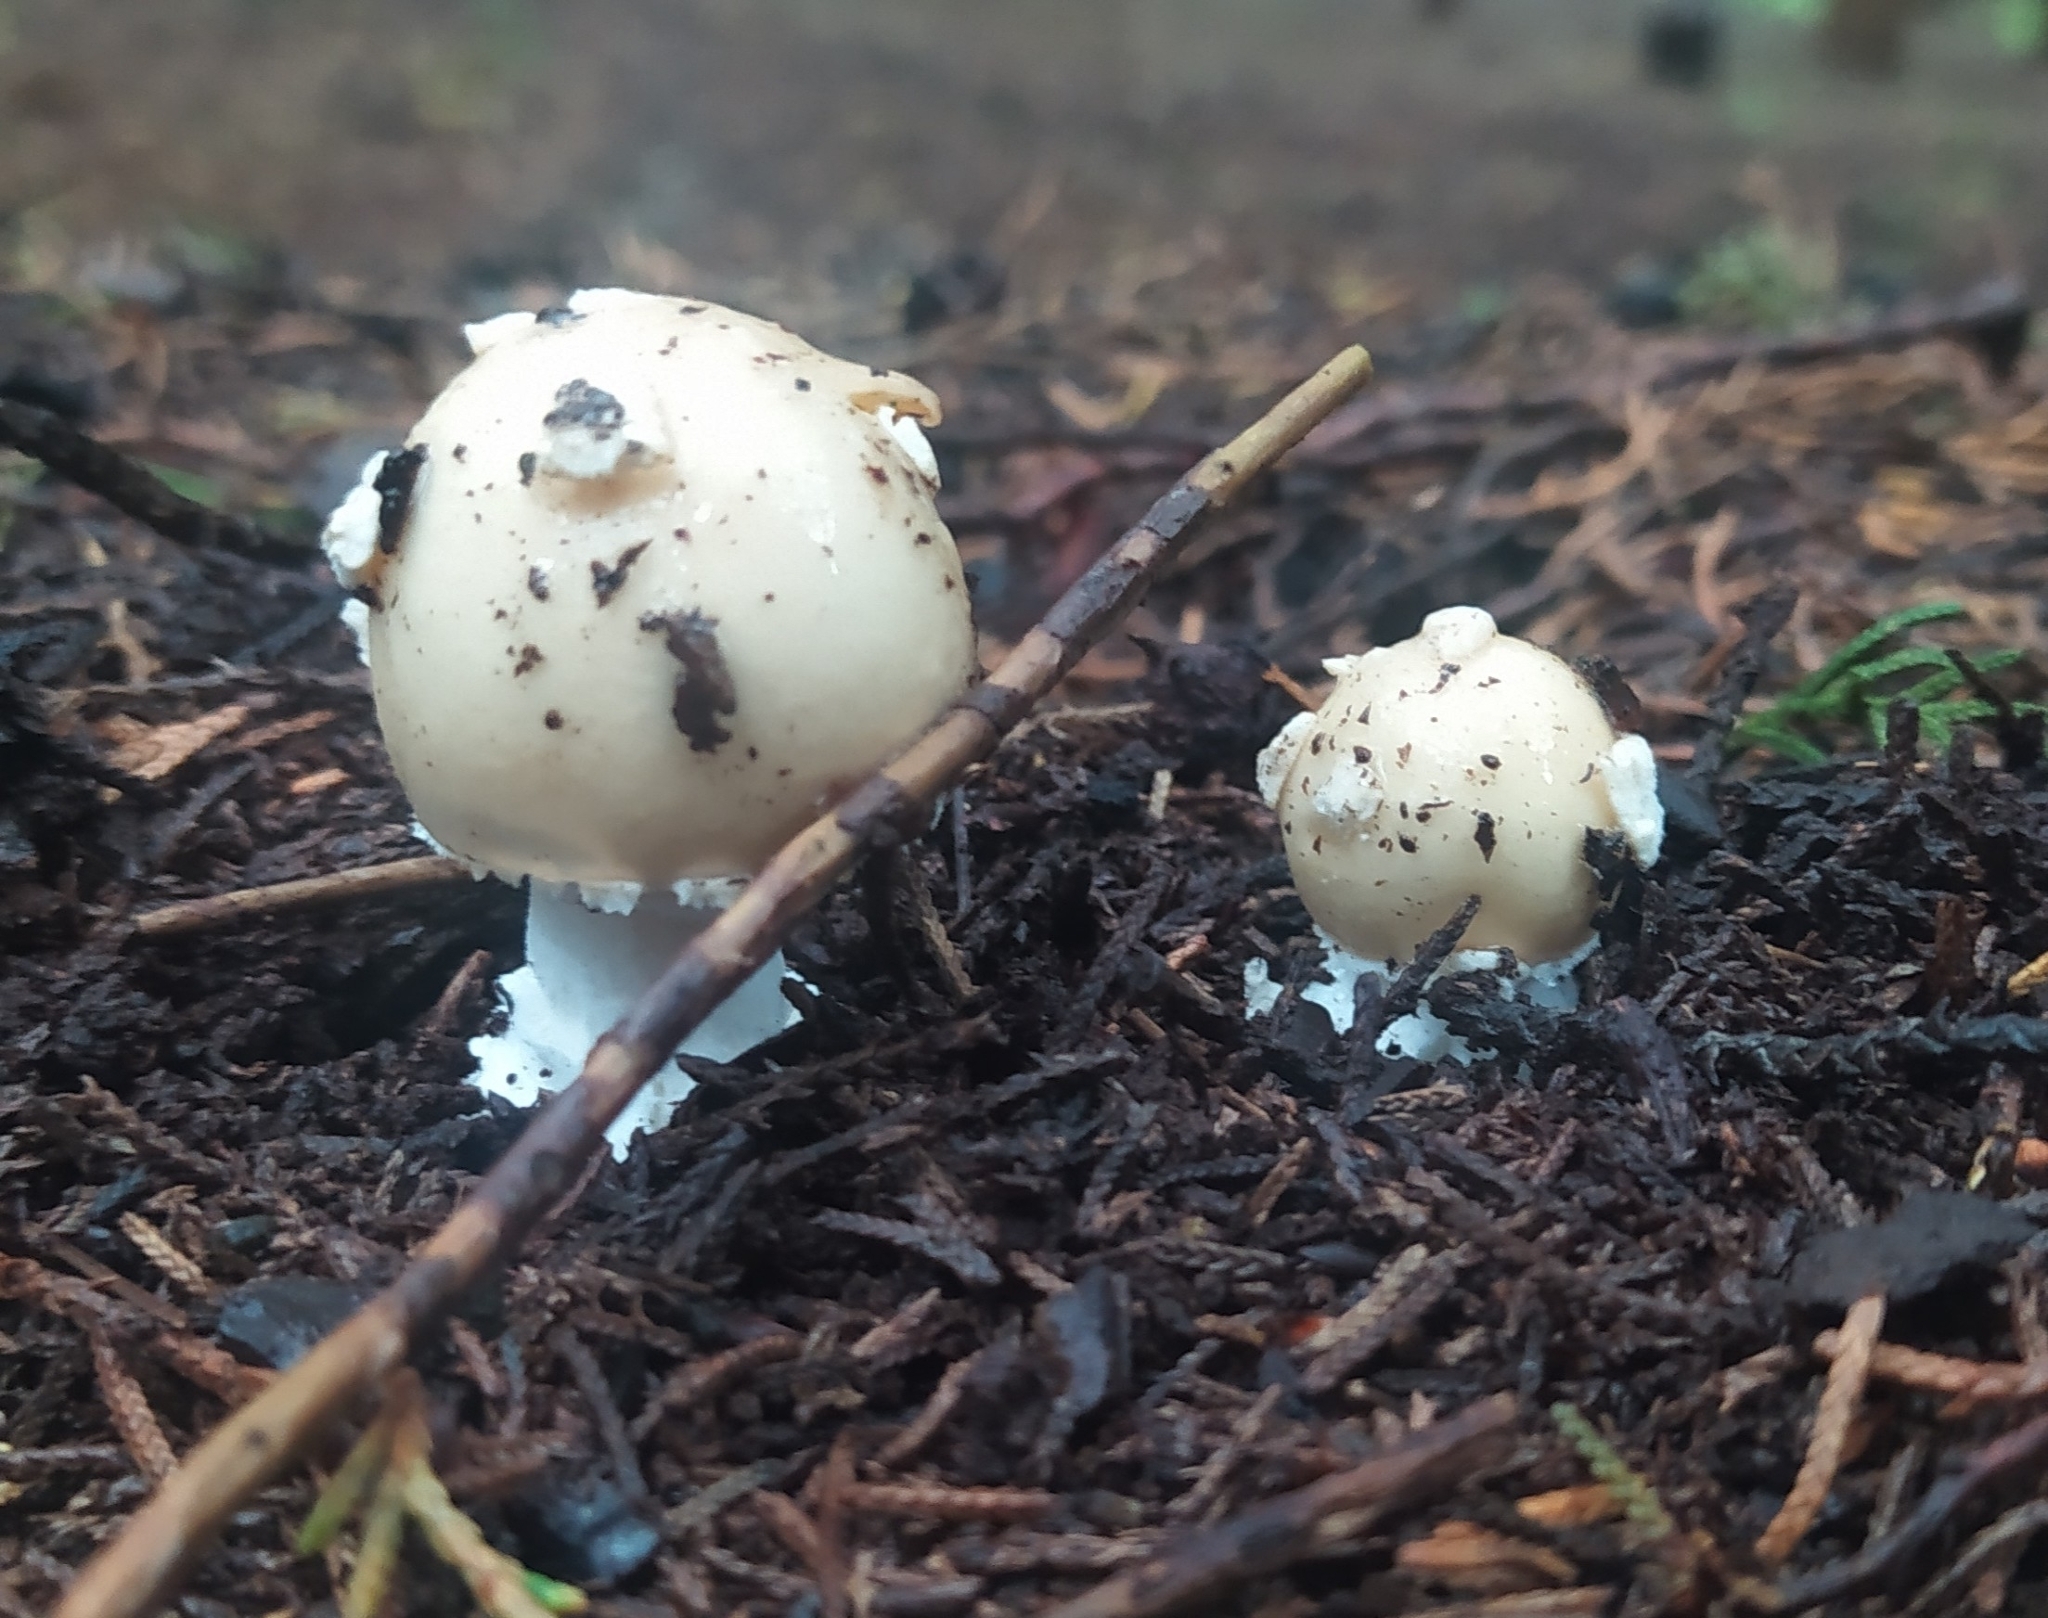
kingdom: Fungi
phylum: Basidiomycota
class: Agaricomycetes
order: Agaricales
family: Amanitaceae
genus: Amanita
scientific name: Amanita xylinivolva
